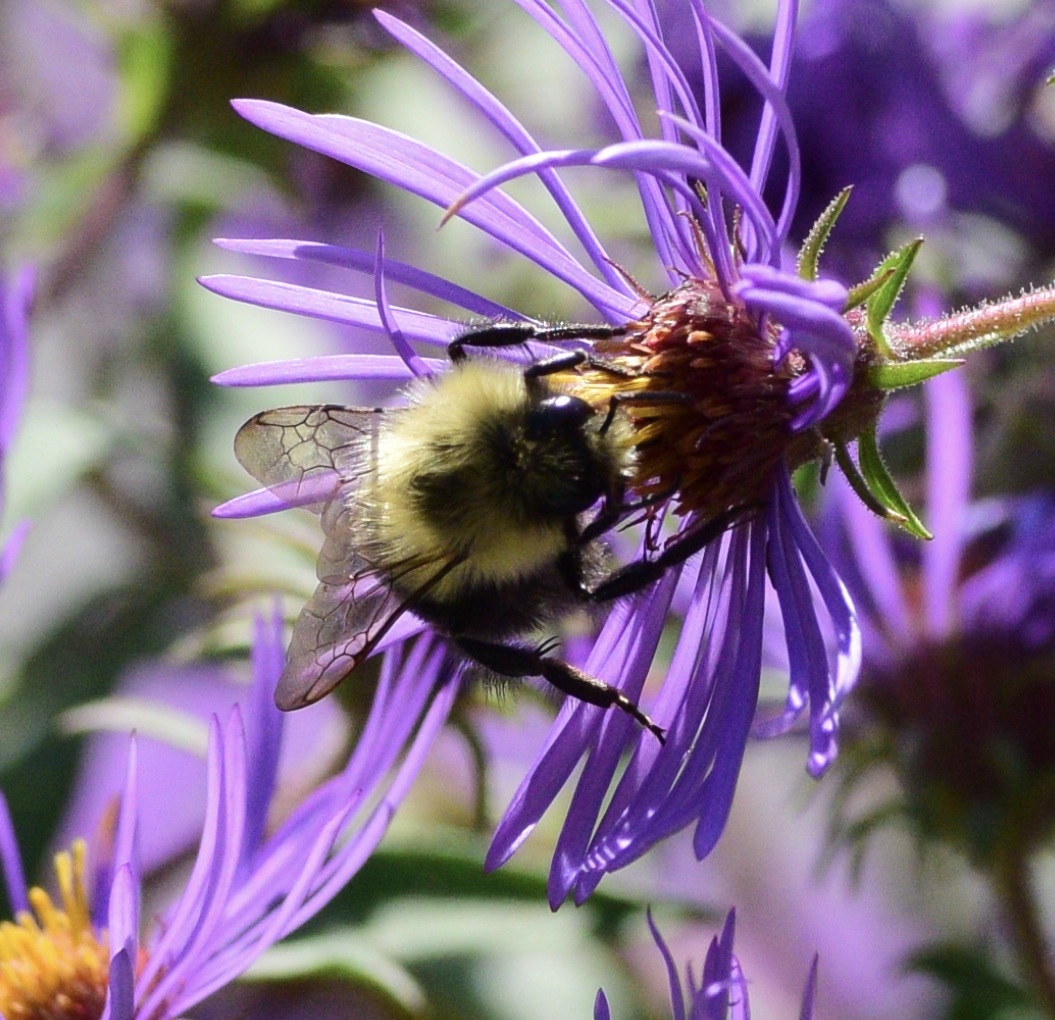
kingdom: Animalia
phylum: Arthropoda
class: Insecta
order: Hymenoptera
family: Apidae
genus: Bombus
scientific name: Bombus impatiens
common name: Common eastern bumble bee
